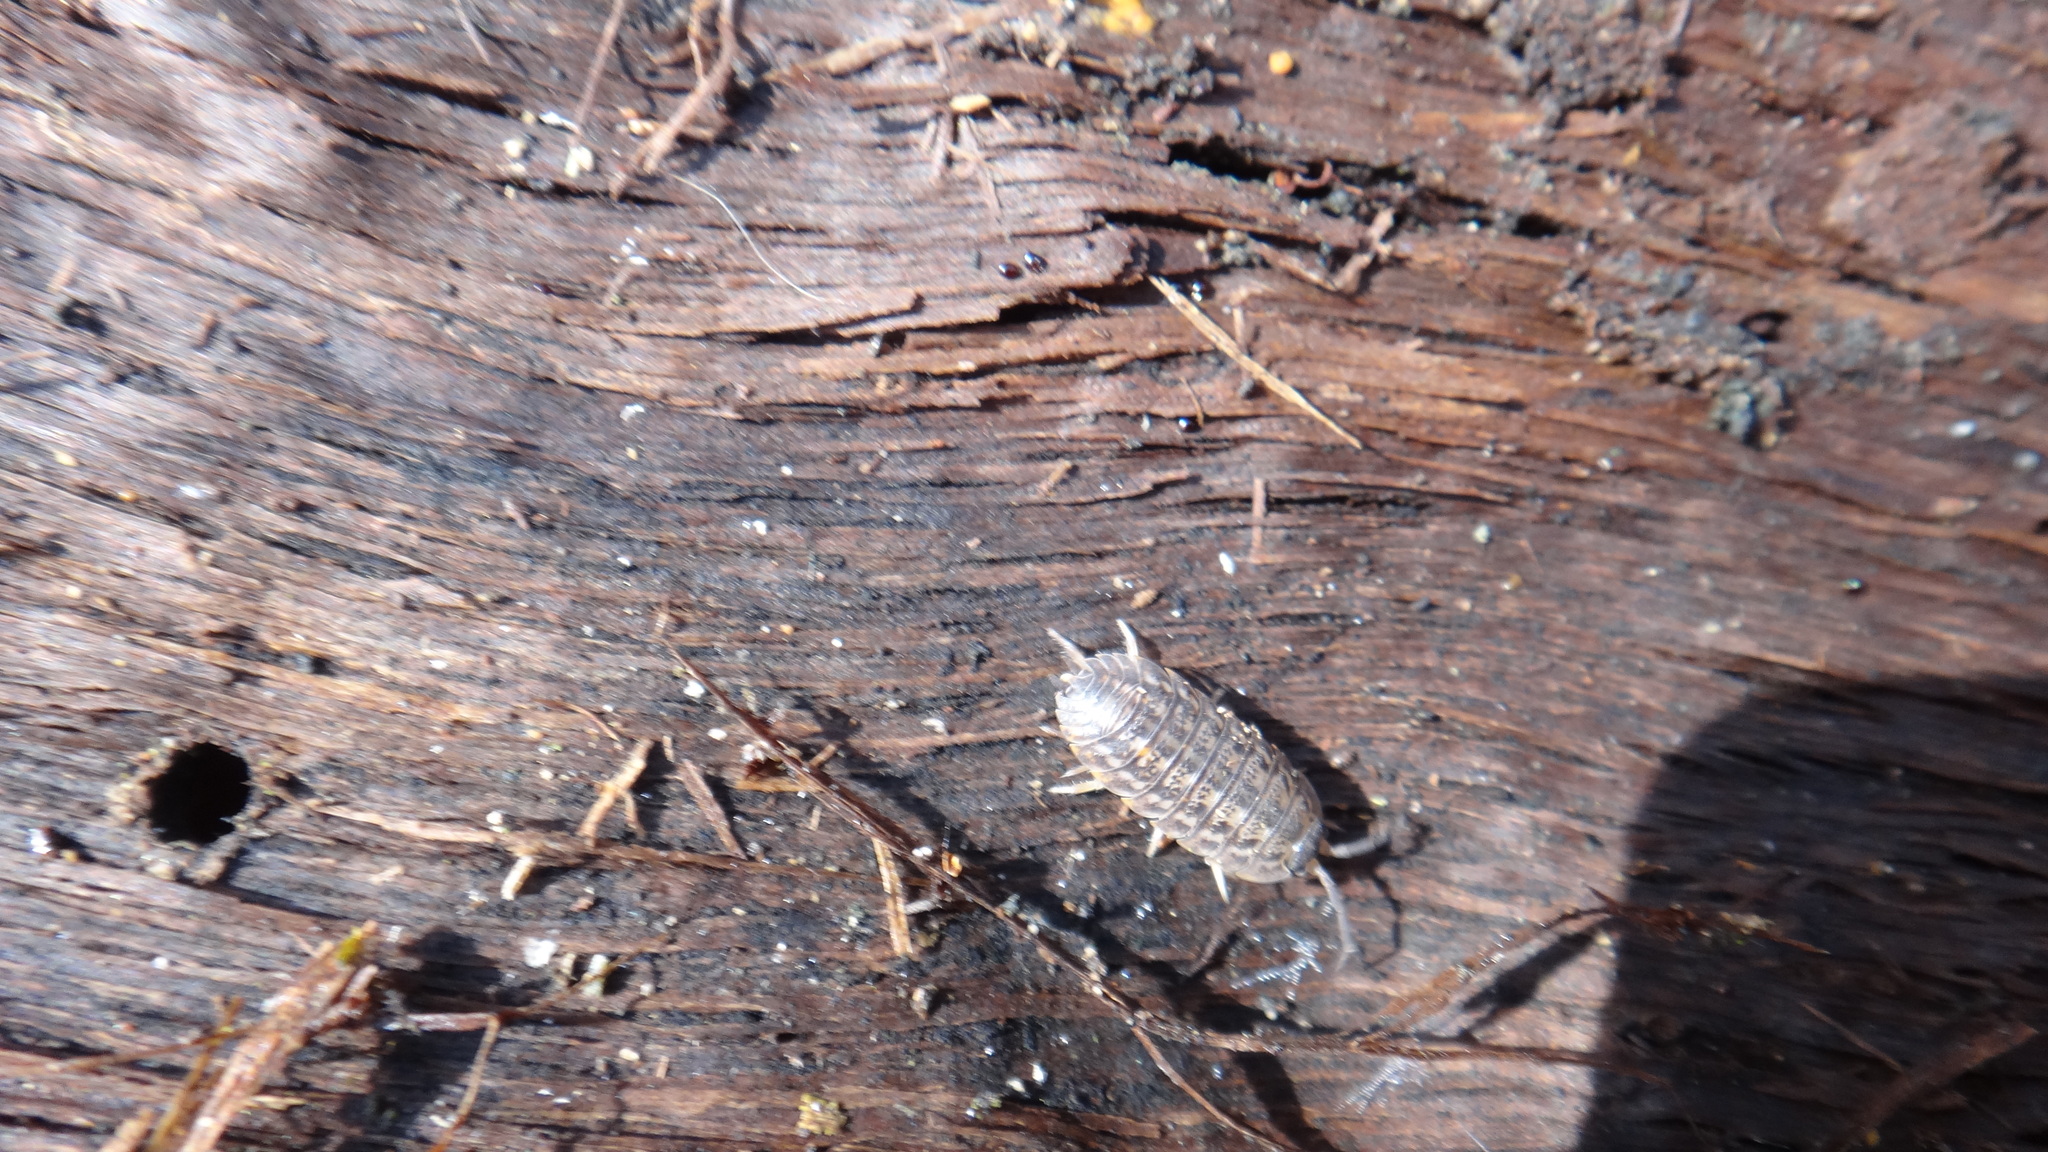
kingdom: Animalia
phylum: Arthropoda
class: Malacostraca
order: Isopoda
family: Trachelipodidae
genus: Trachelipus
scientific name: Trachelipus rathkii
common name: Isopod
